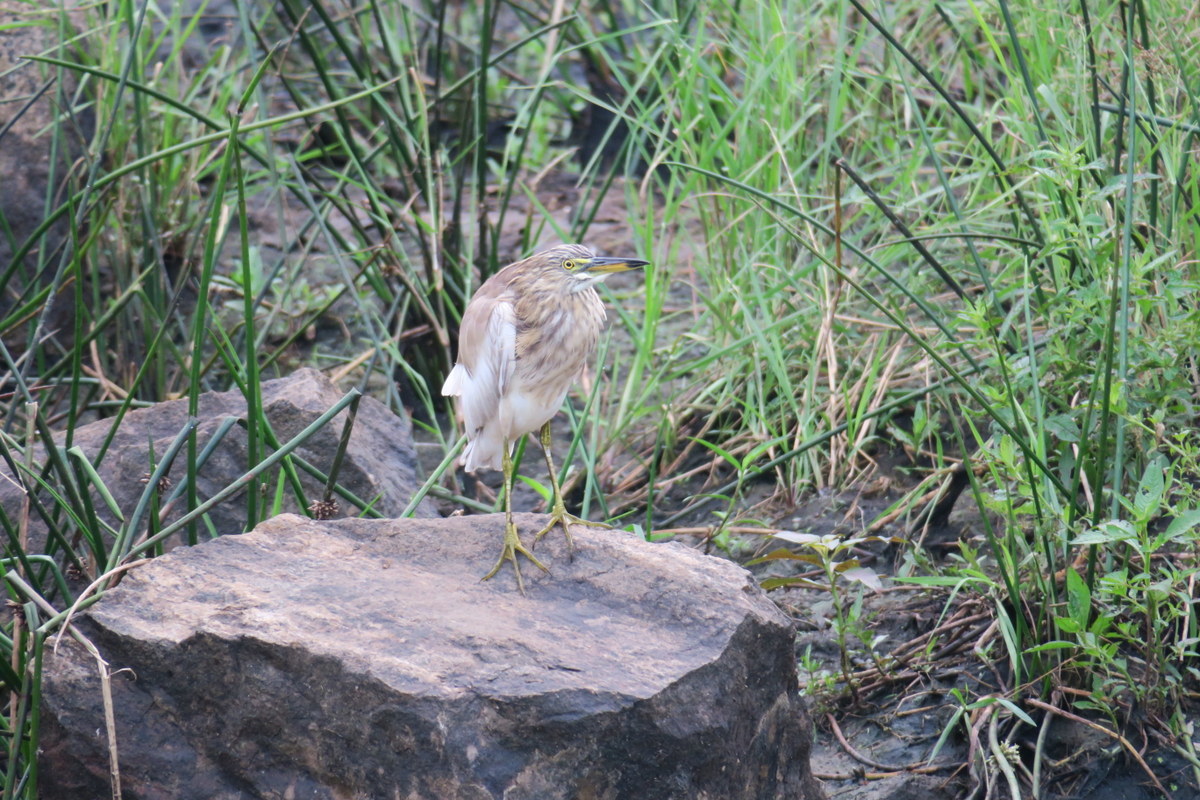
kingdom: Animalia
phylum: Chordata
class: Aves
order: Pelecaniformes
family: Ardeidae
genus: Ardeola
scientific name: Ardeola grayii
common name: Indian pond heron
